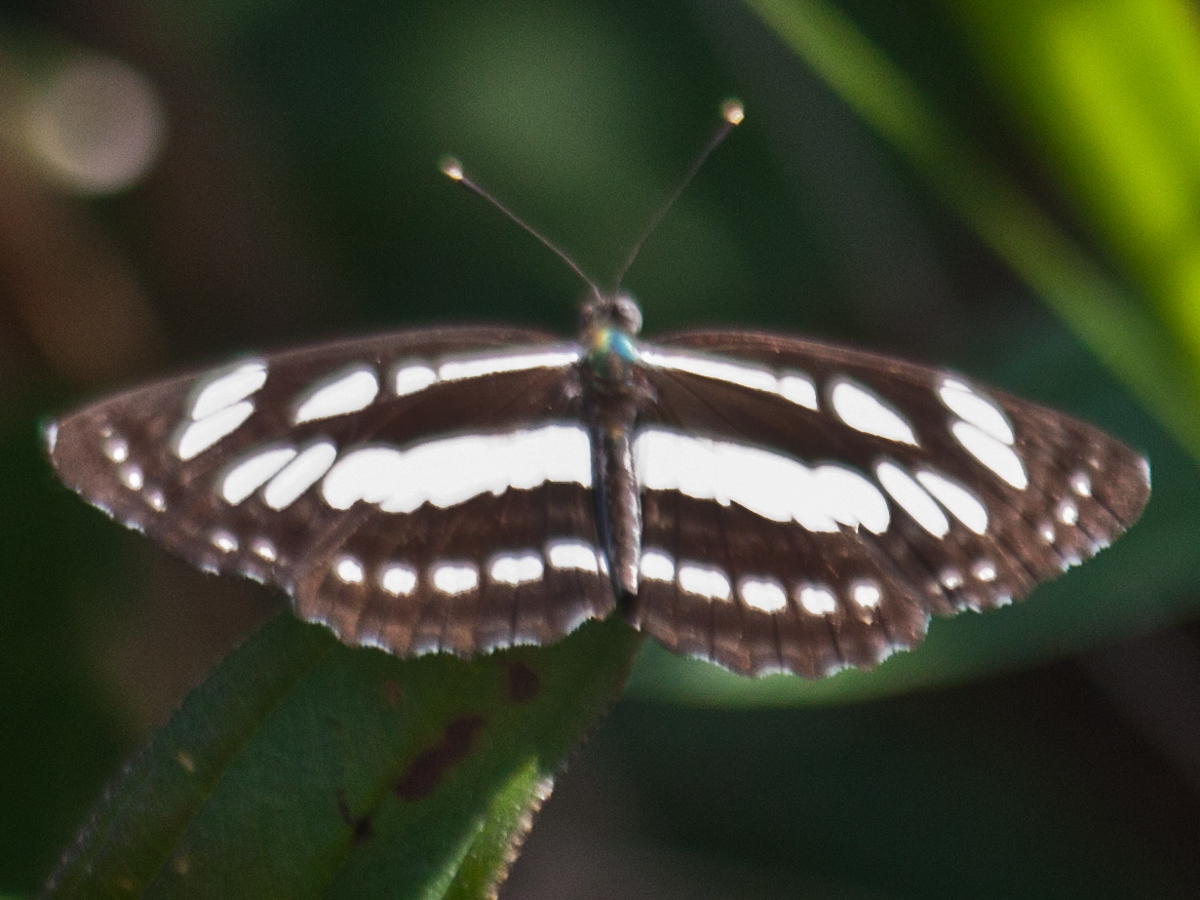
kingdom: Animalia
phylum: Arthropoda
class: Insecta
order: Lepidoptera
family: Nymphalidae
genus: Neptis
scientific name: Neptis hylas
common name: Common sailer
